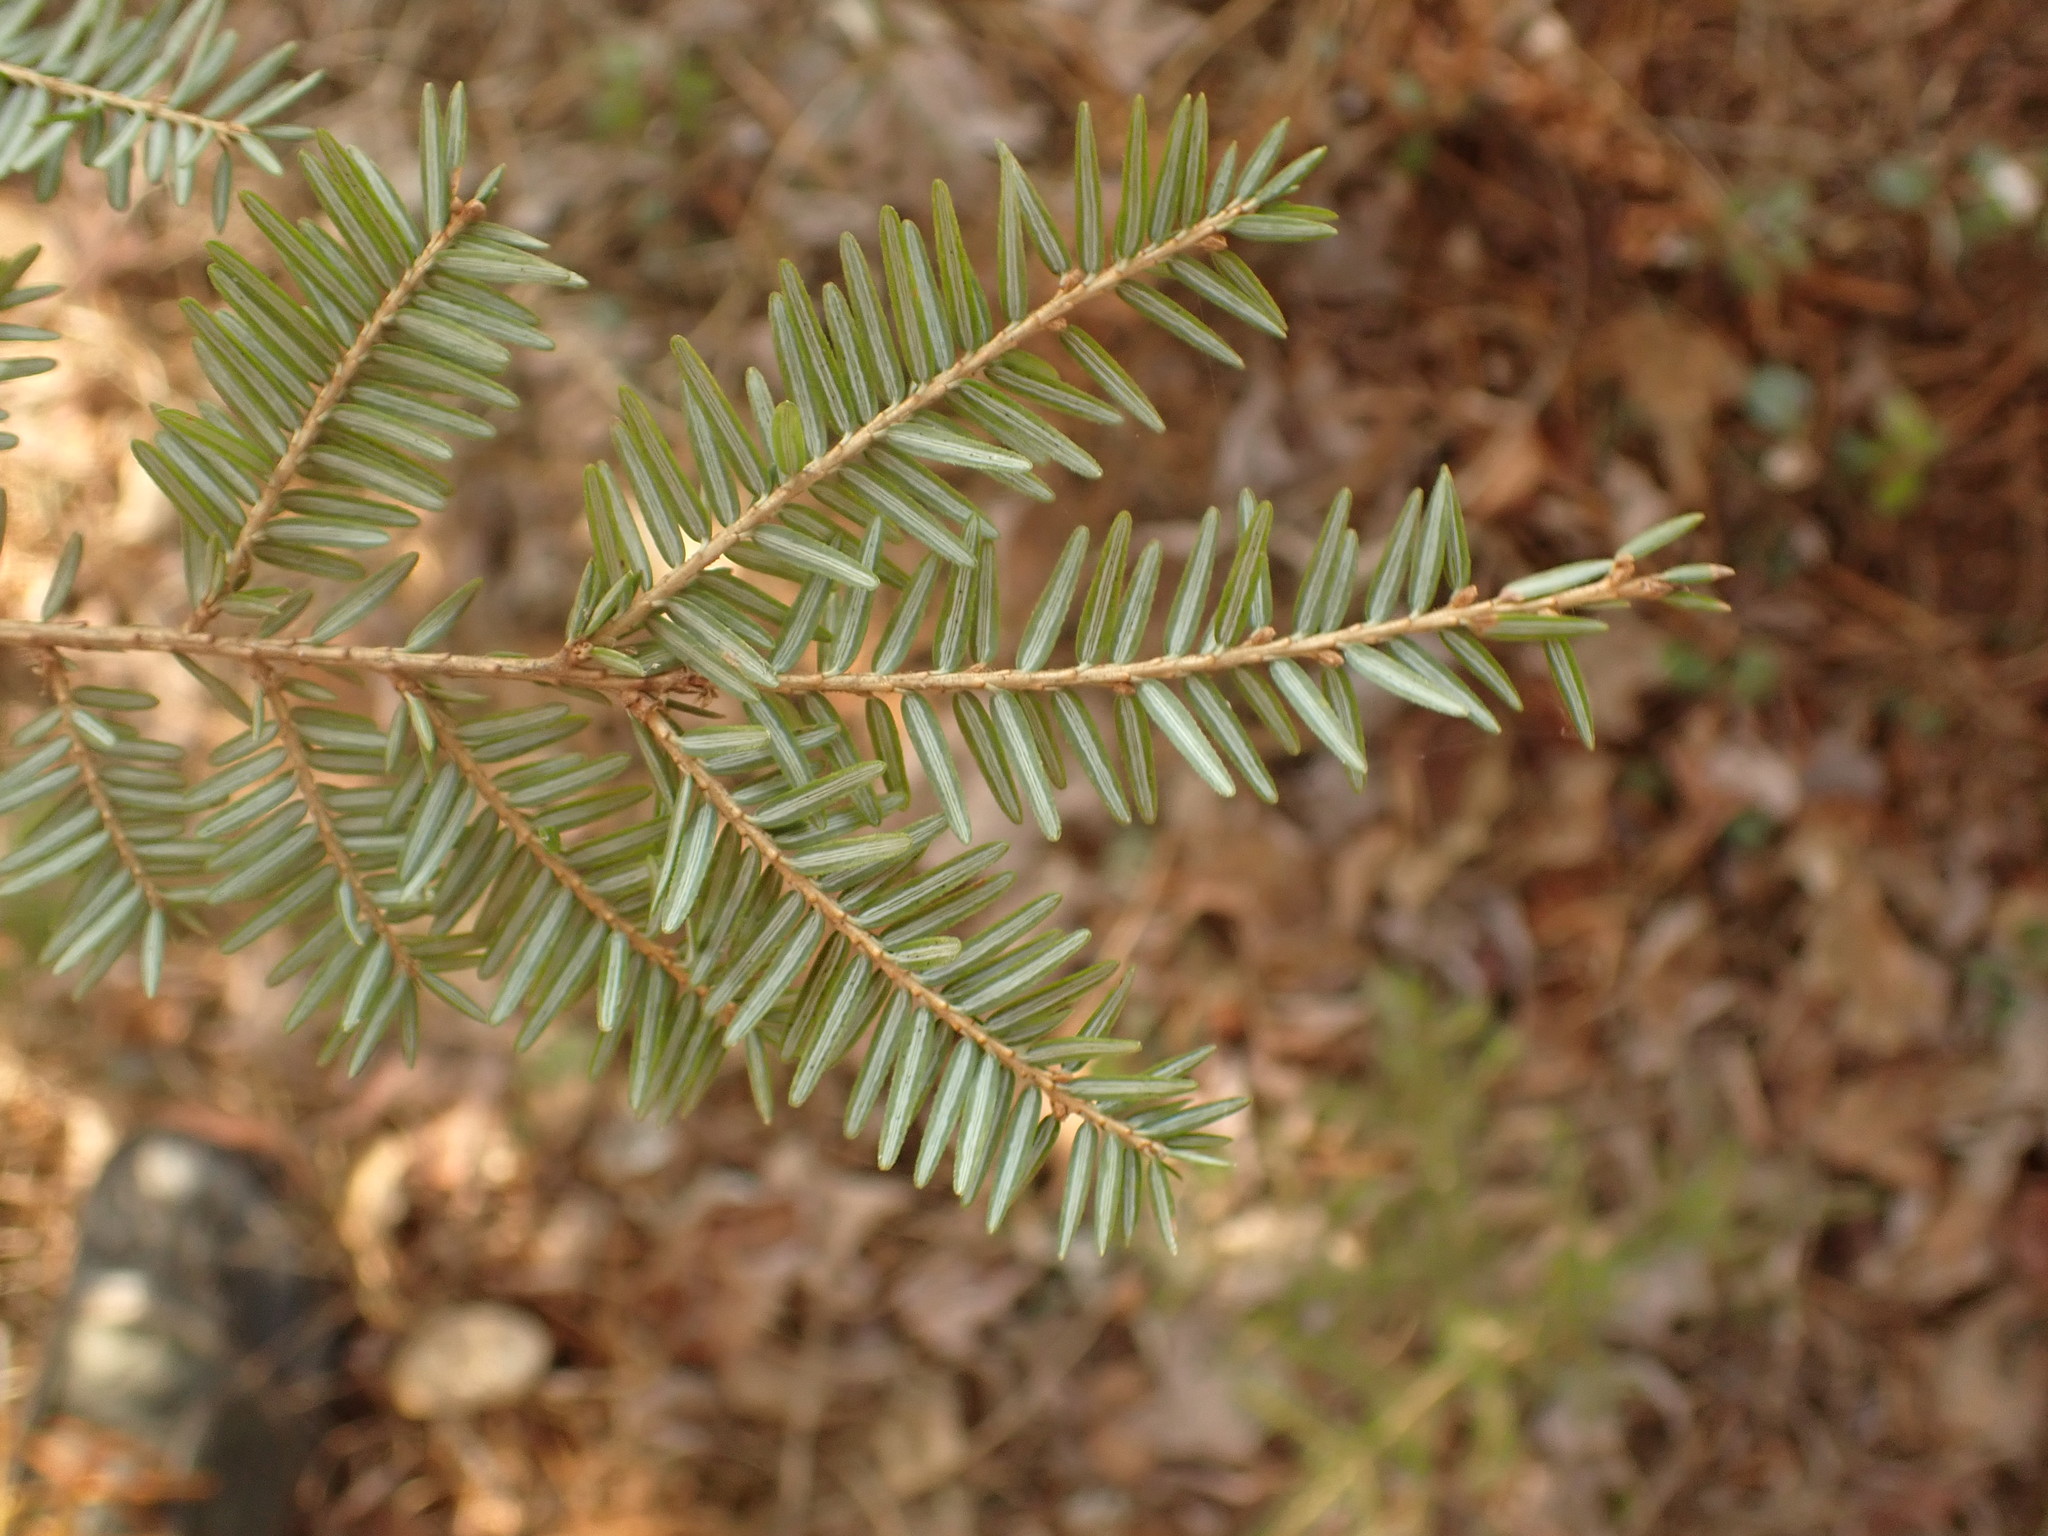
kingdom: Plantae
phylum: Tracheophyta
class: Pinopsida
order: Pinales
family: Pinaceae
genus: Tsuga
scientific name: Tsuga canadensis
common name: Eastern hemlock
